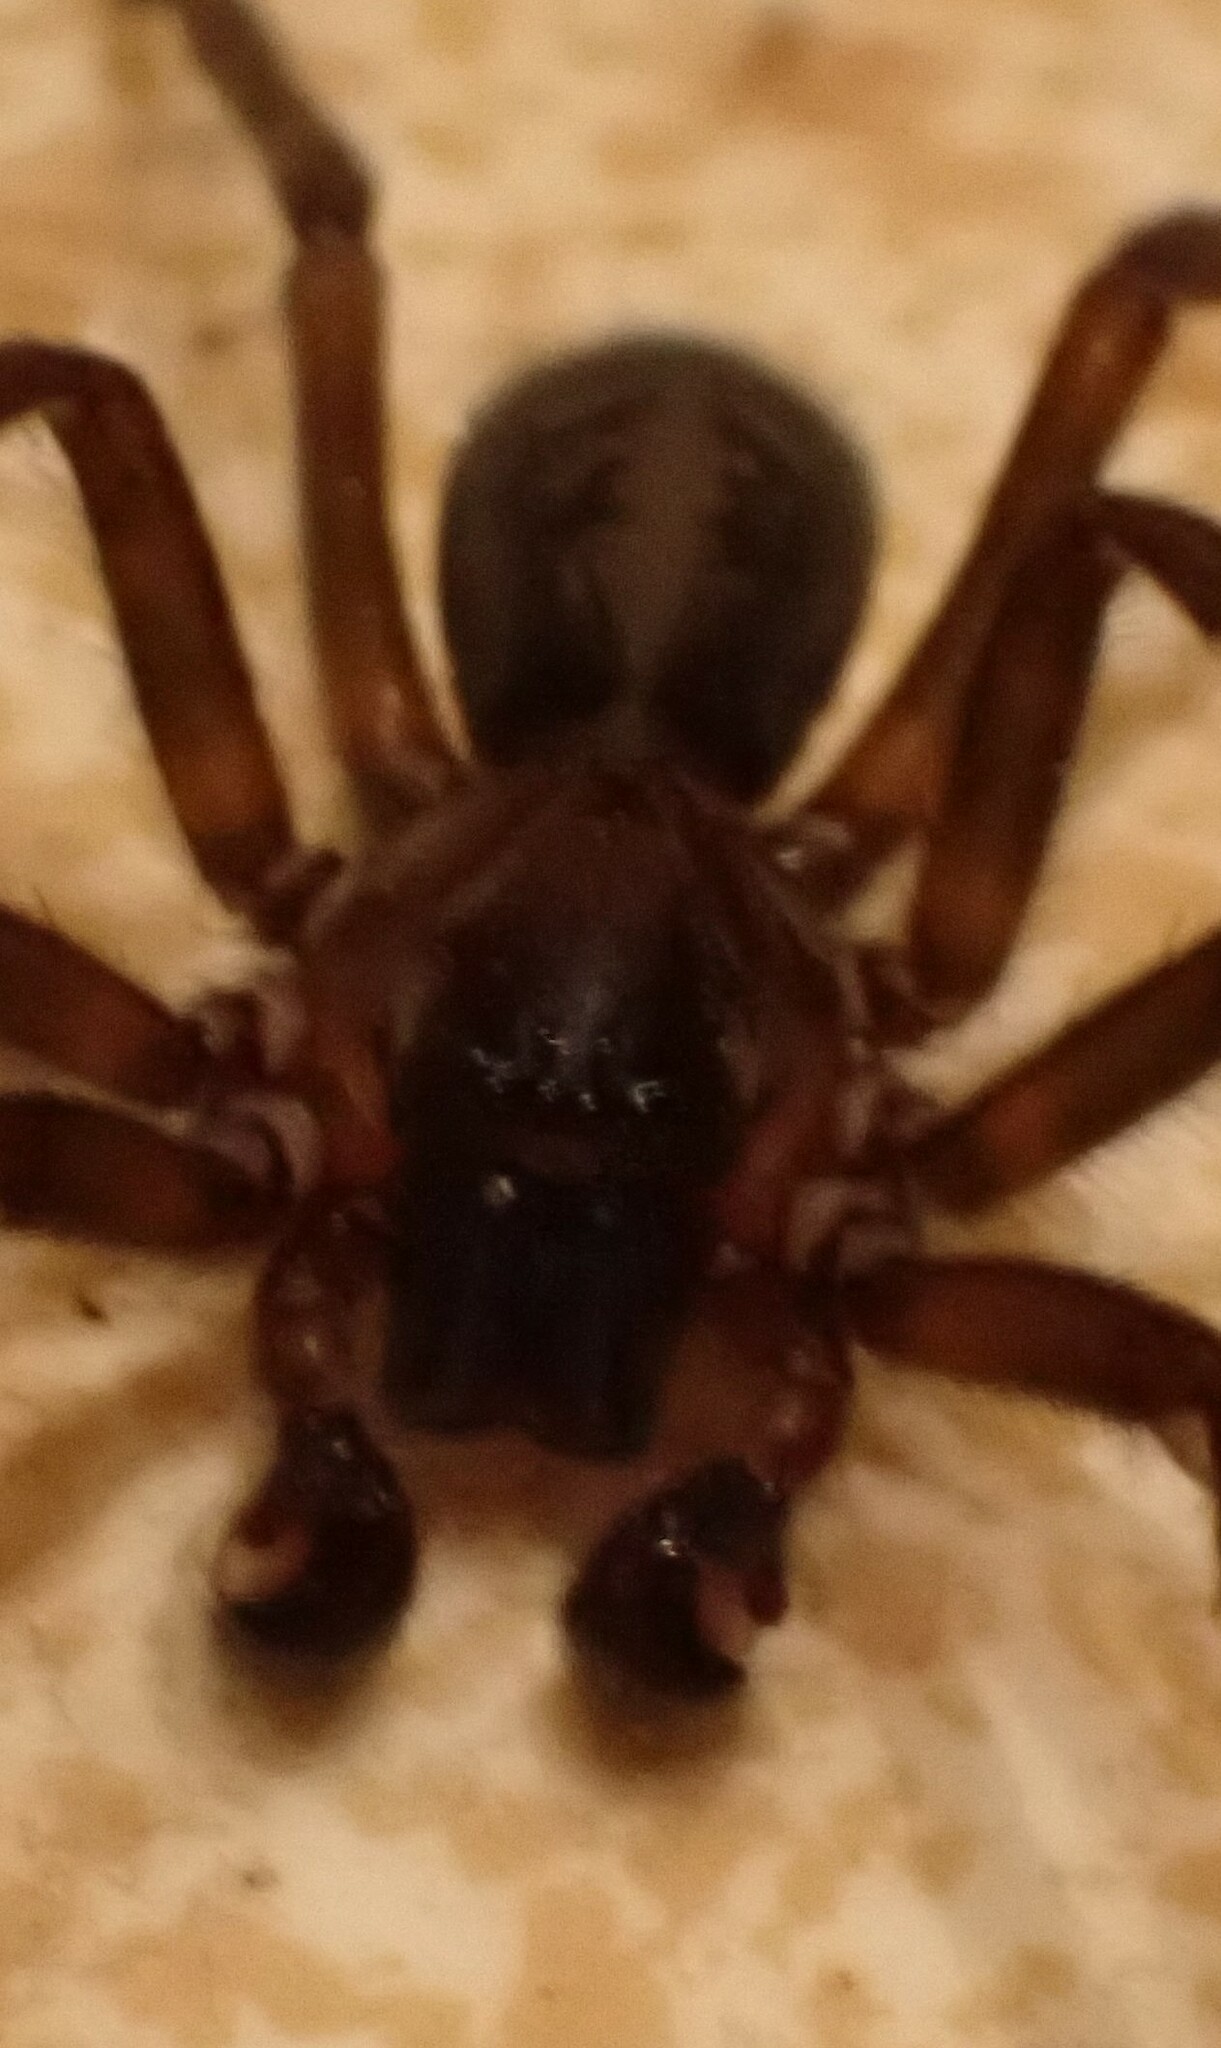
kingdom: Animalia
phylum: Arthropoda
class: Arachnida
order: Araneae
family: Amaurobiidae
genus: Amaurobius
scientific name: Amaurobius ferox
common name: Black laceweaver
